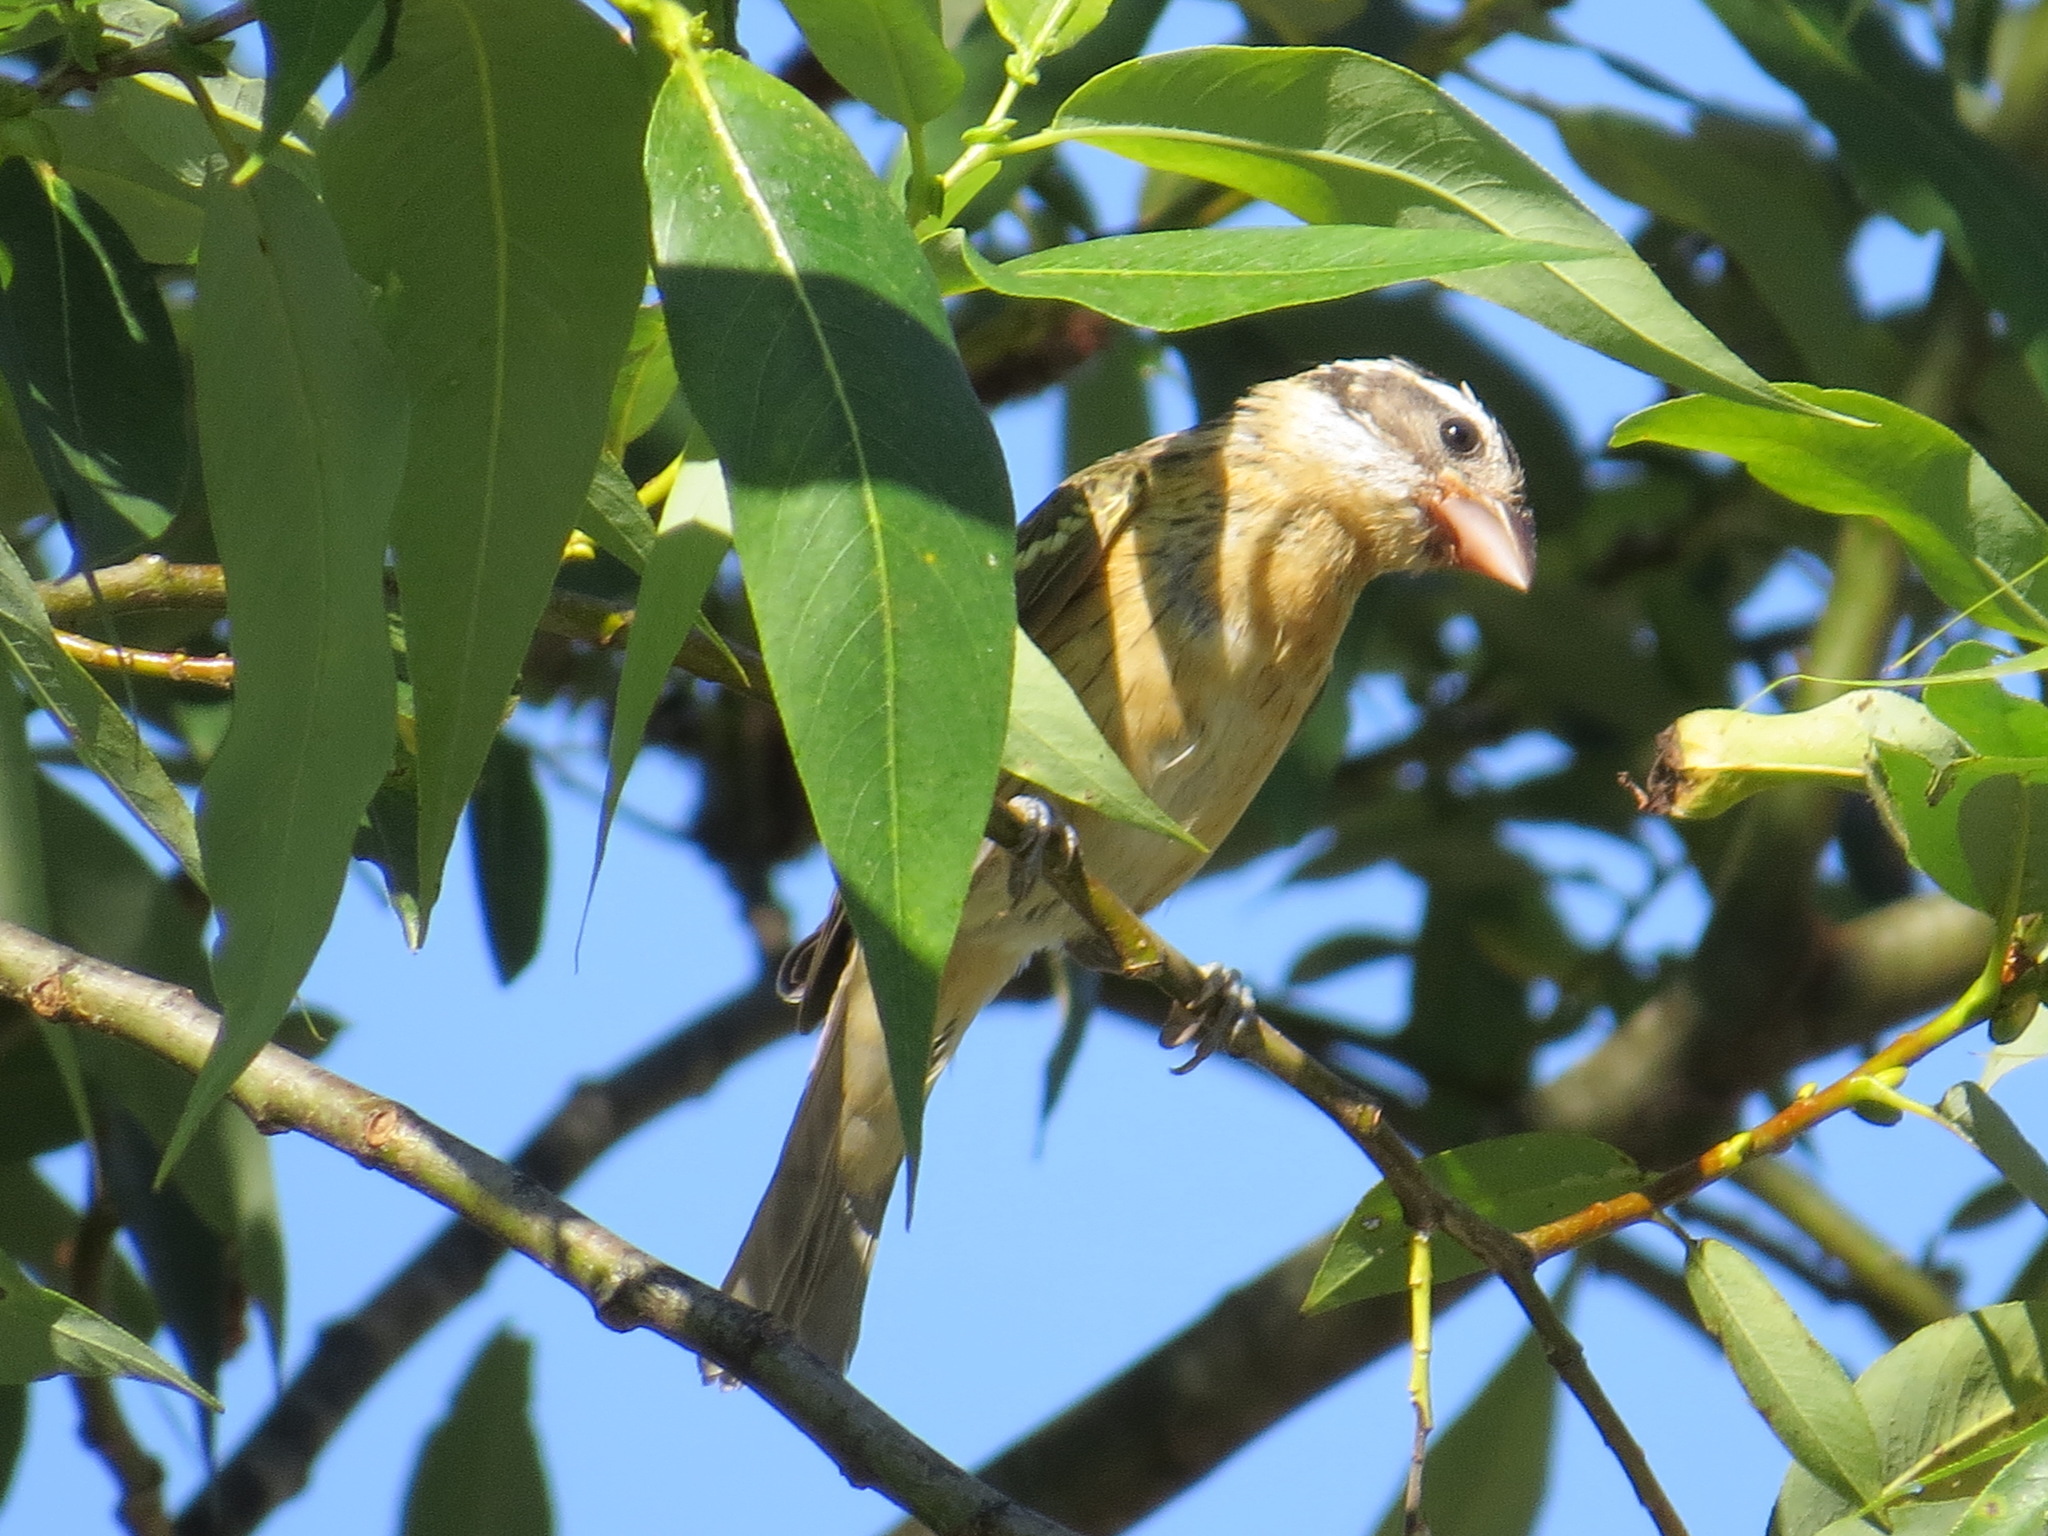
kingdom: Animalia
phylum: Chordata
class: Aves
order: Passeriformes
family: Cardinalidae
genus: Pheucticus
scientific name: Pheucticus melanocephalus
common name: Black-headed grosbeak
